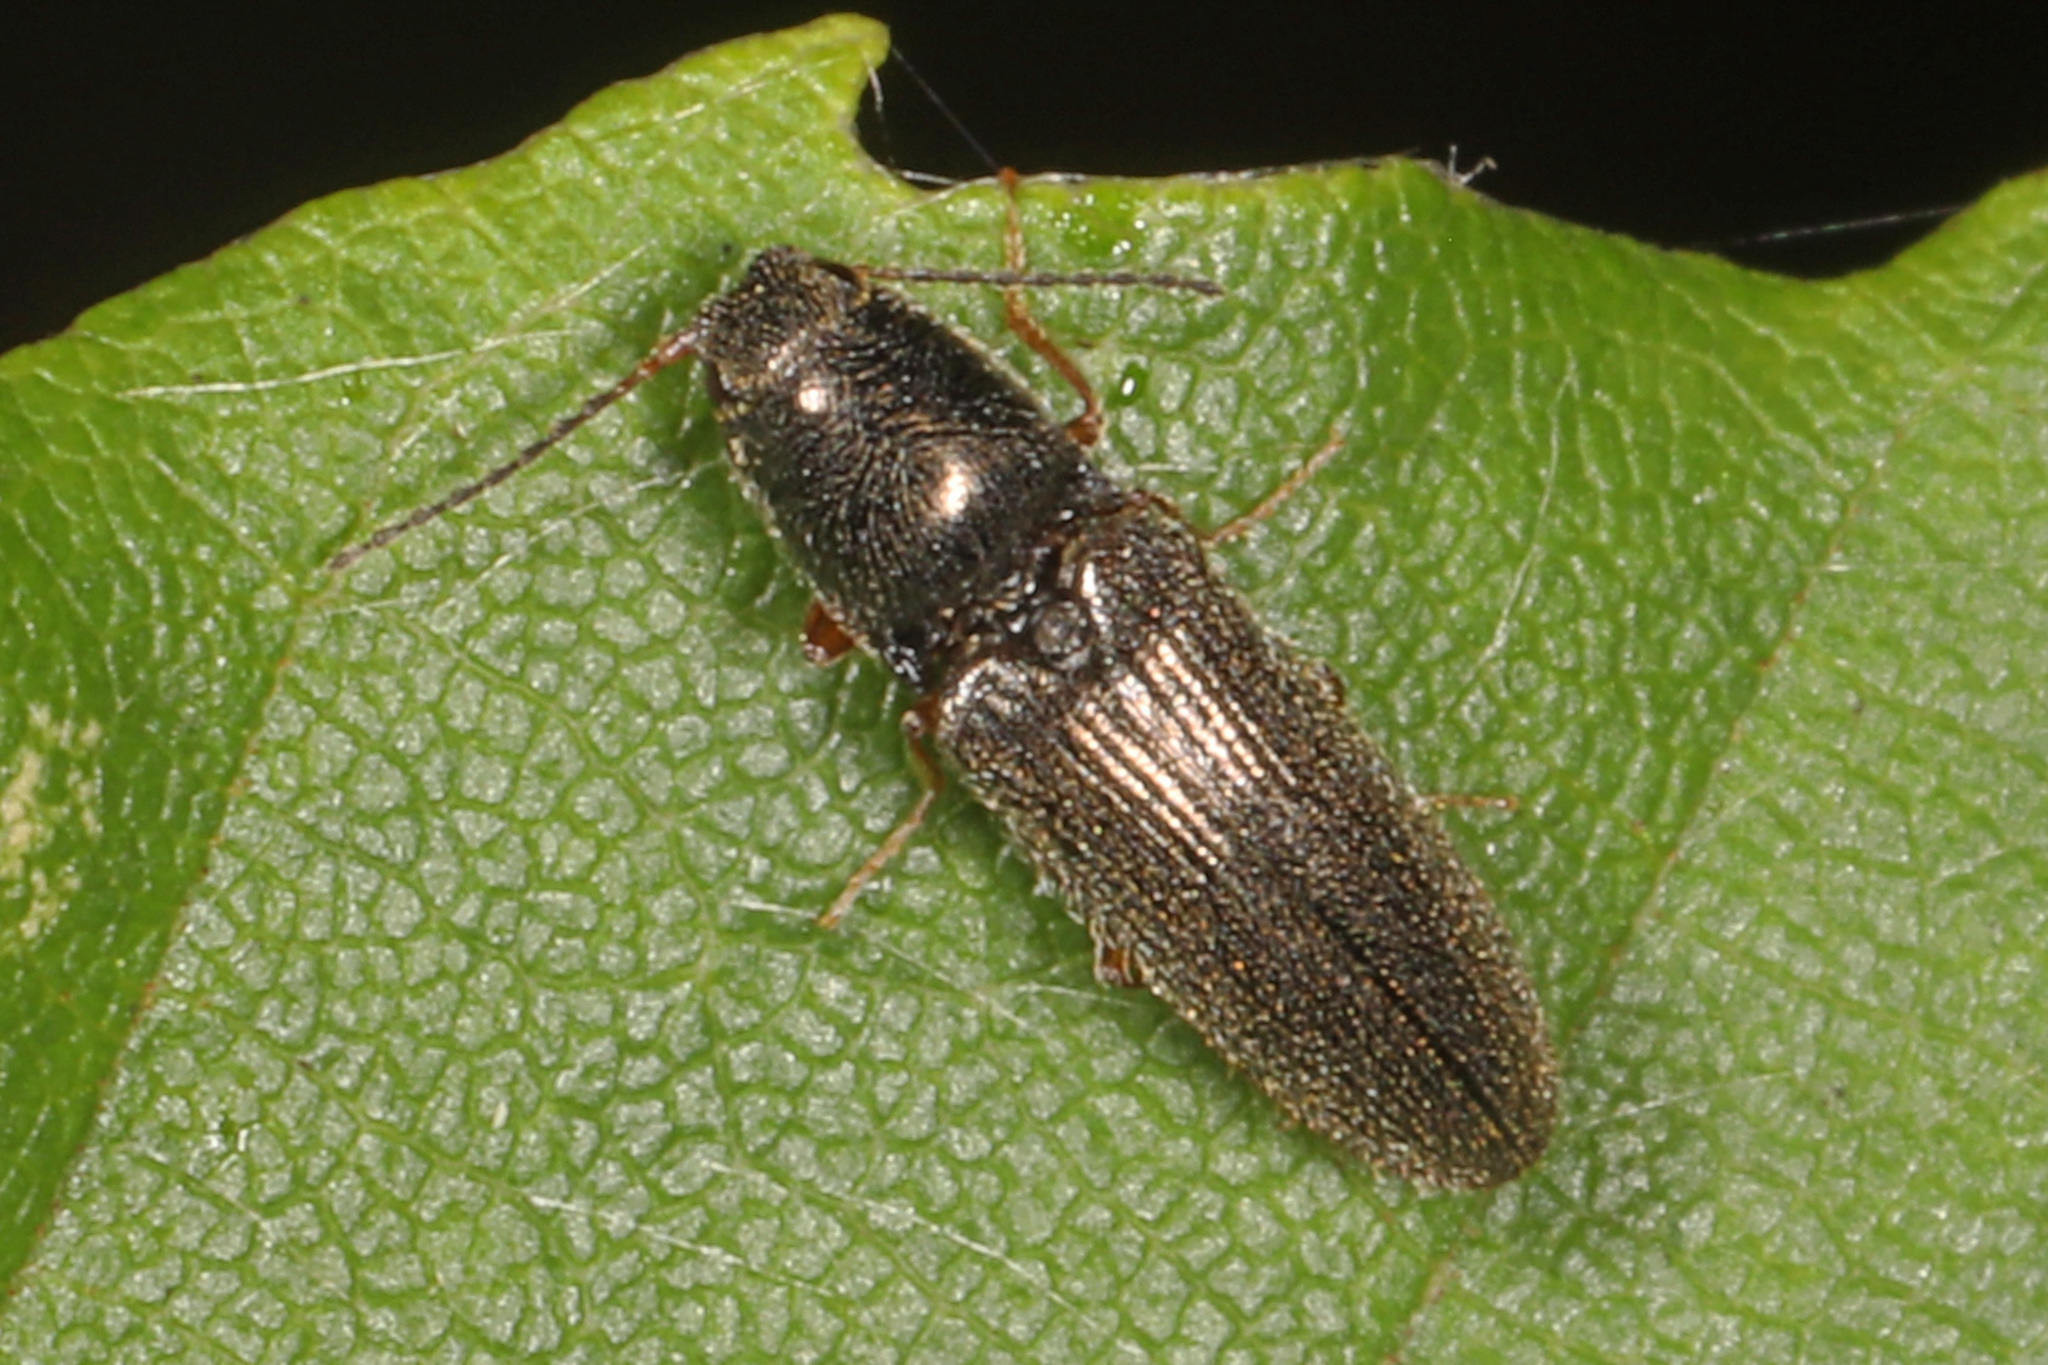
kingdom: Animalia
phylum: Arthropoda
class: Insecta
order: Coleoptera
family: Elateridae
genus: Limonius
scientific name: Limonius quercinus
